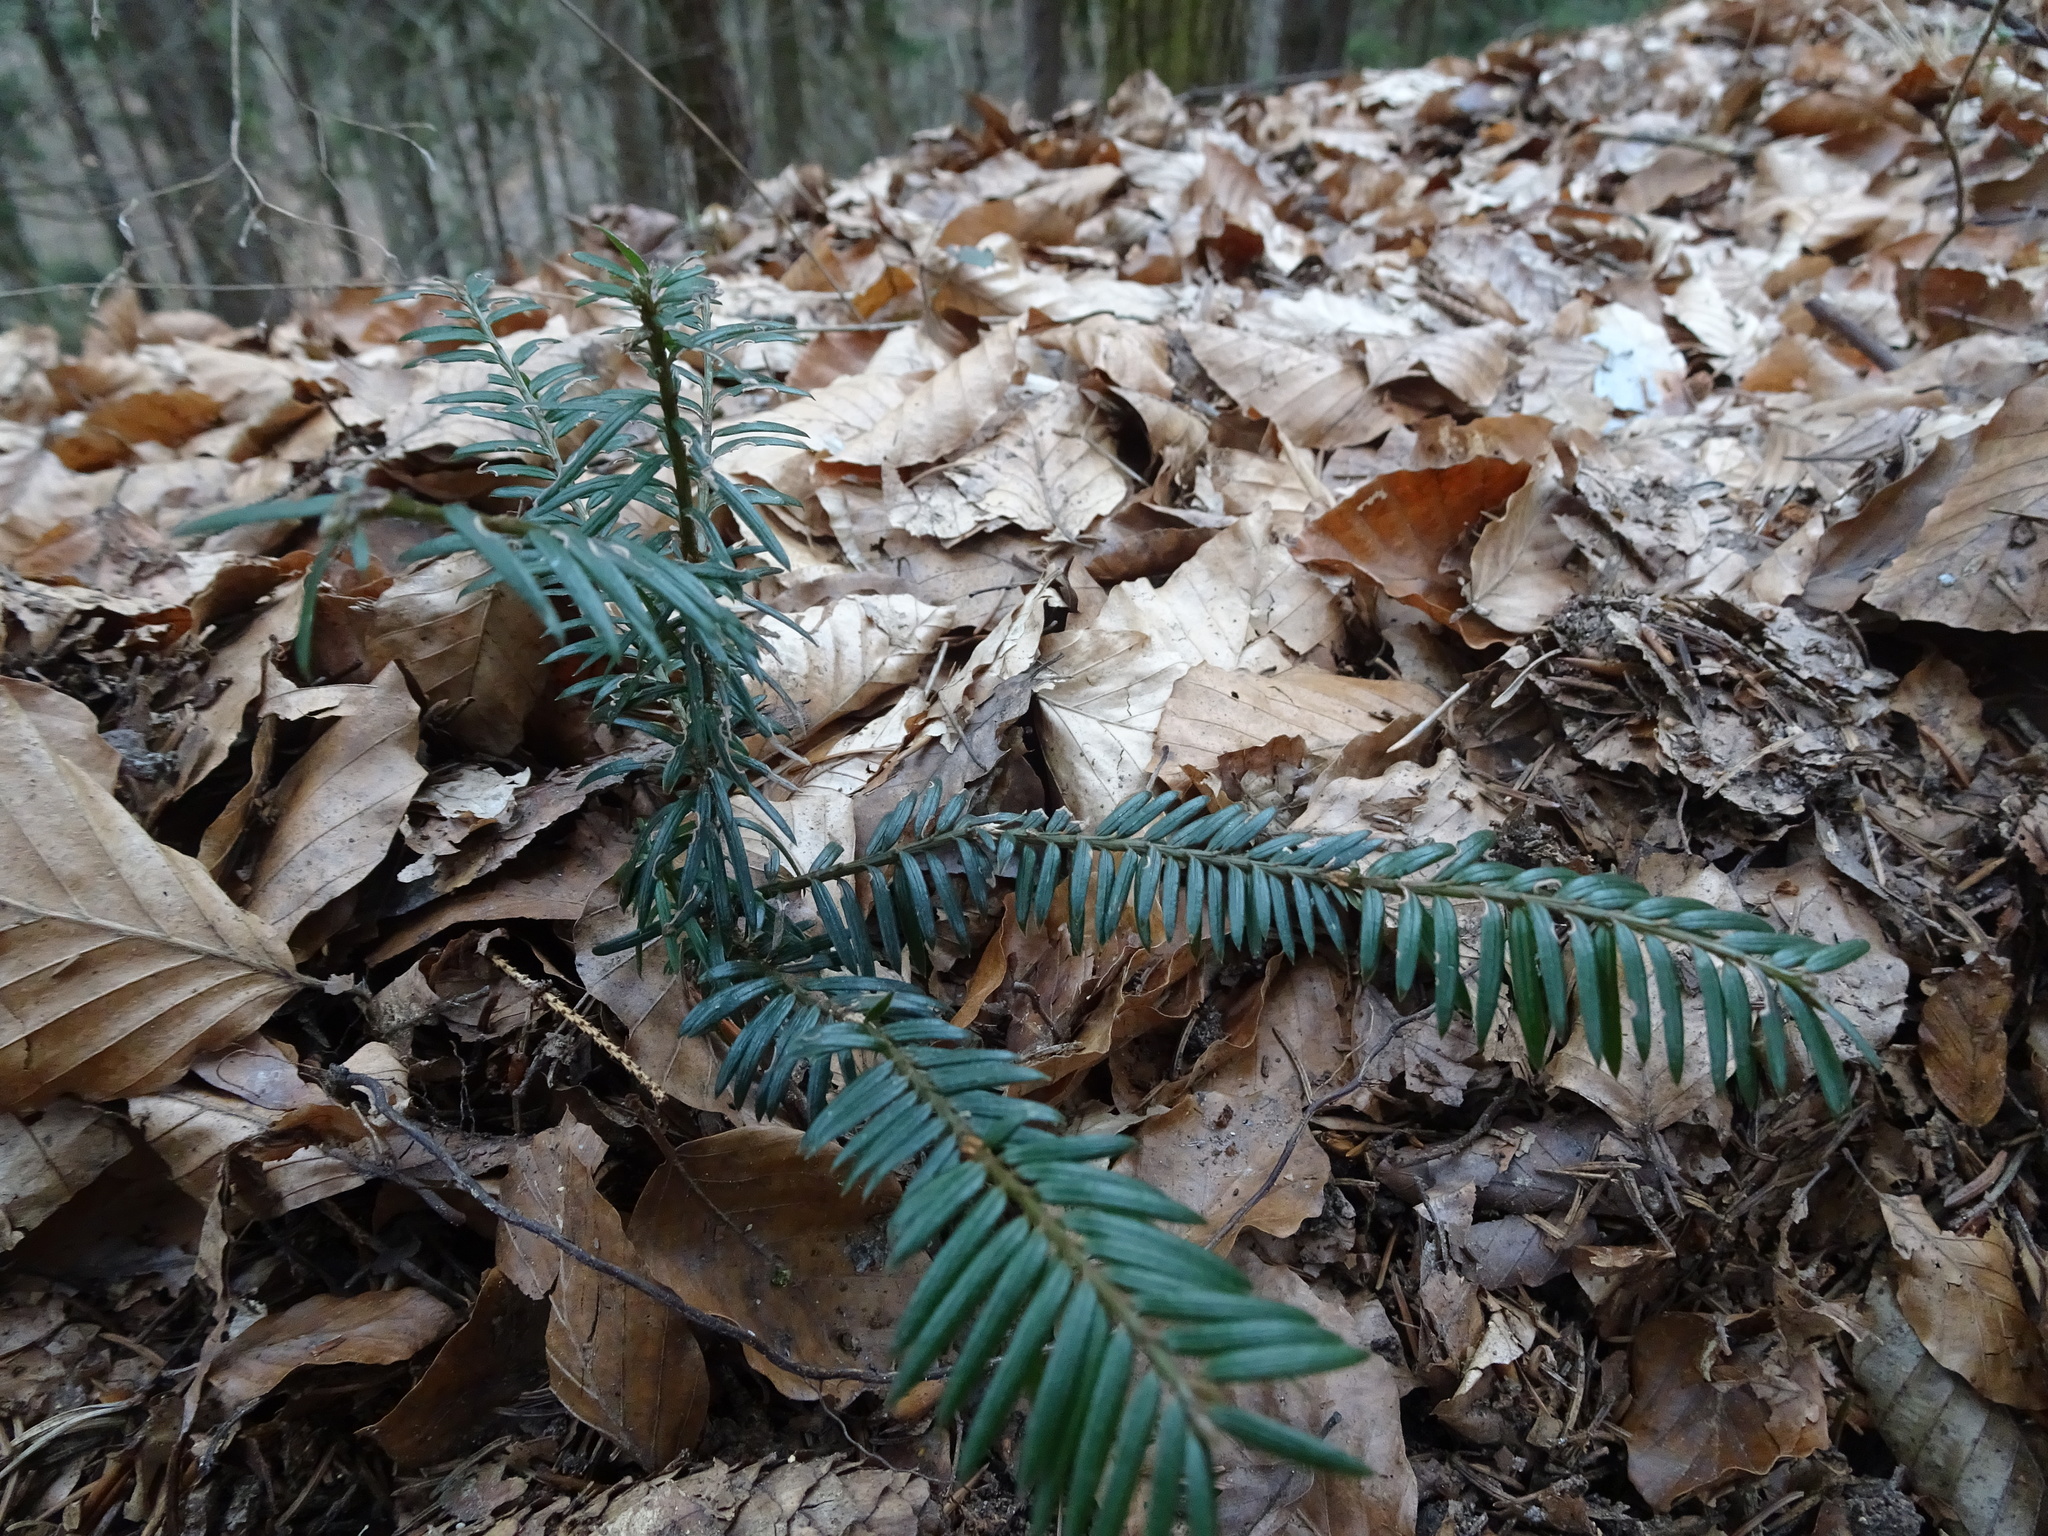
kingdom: Plantae
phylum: Tracheophyta
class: Pinopsida
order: Pinales
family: Taxaceae
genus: Taxus
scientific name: Taxus baccata
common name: Yew
